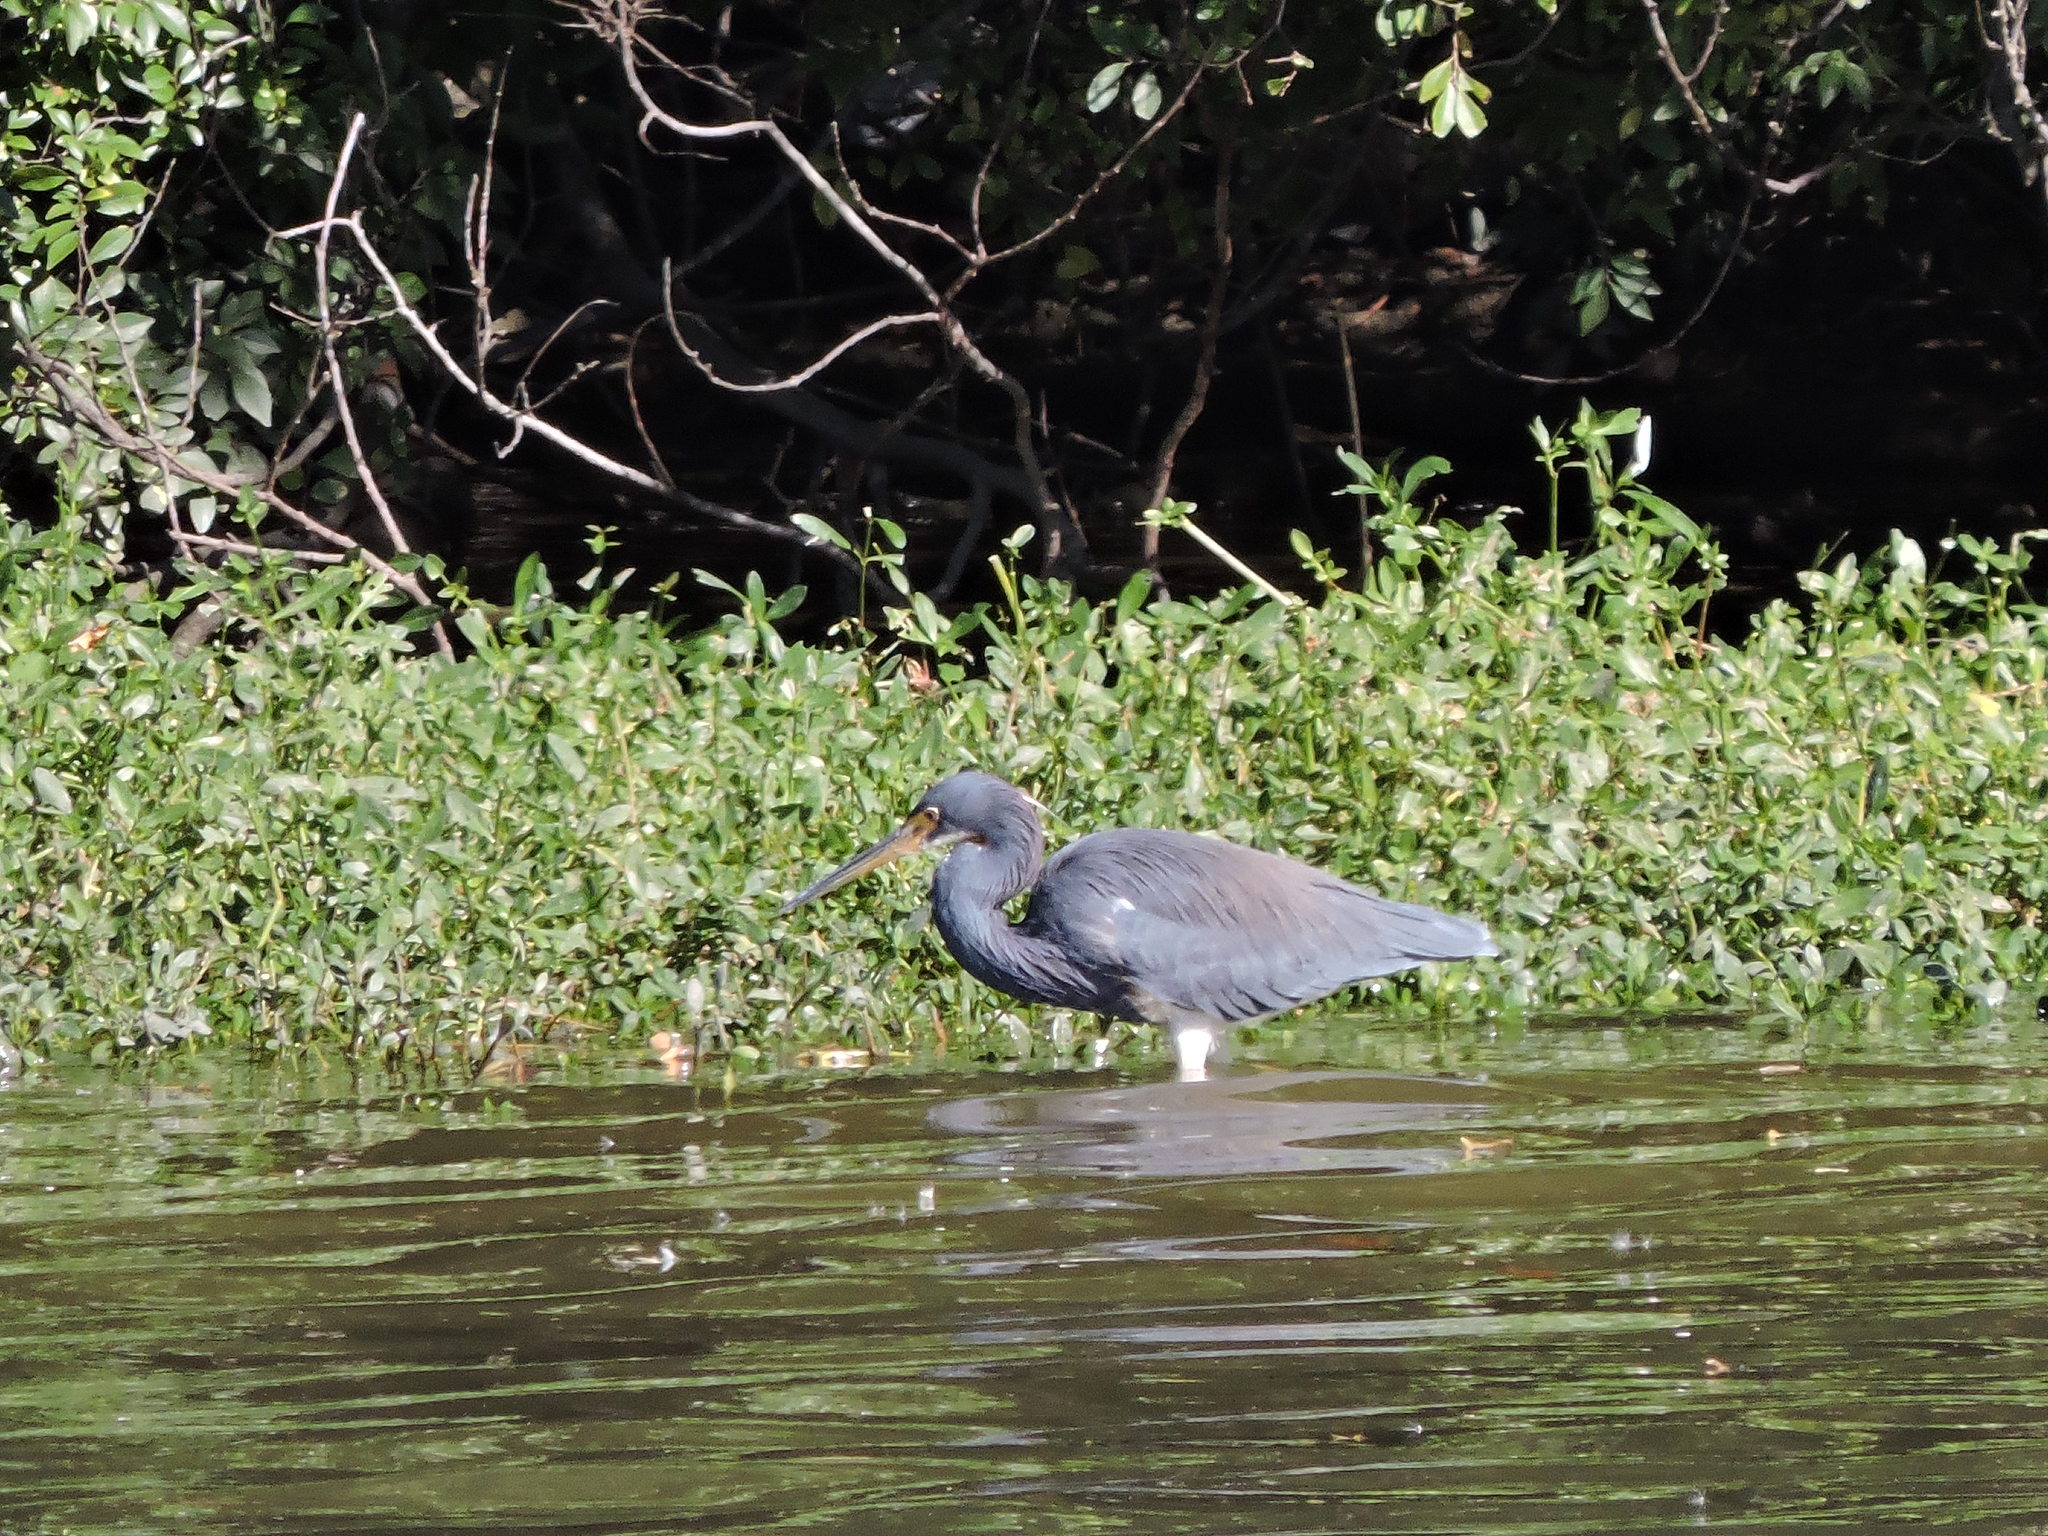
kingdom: Animalia
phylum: Chordata
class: Aves
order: Pelecaniformes
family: Ardeidae
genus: Egretta
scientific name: Egretta tricolor
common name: Tricolored heron
